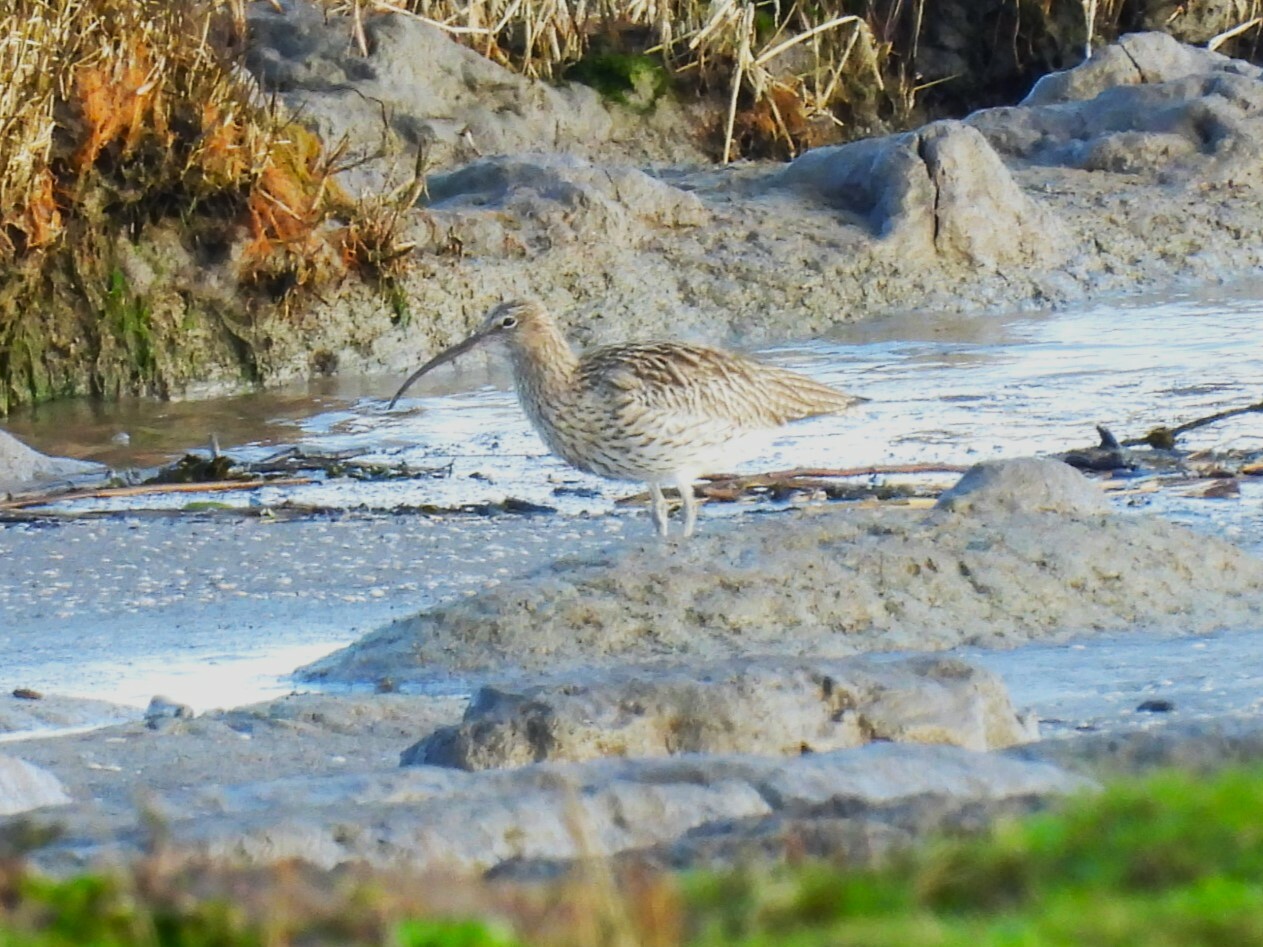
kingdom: Animalia
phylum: Chordata
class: Aves
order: Charadriiformes
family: Scolopacidae
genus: Numenius
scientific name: Numenius arquata
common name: Eurasian curlew
